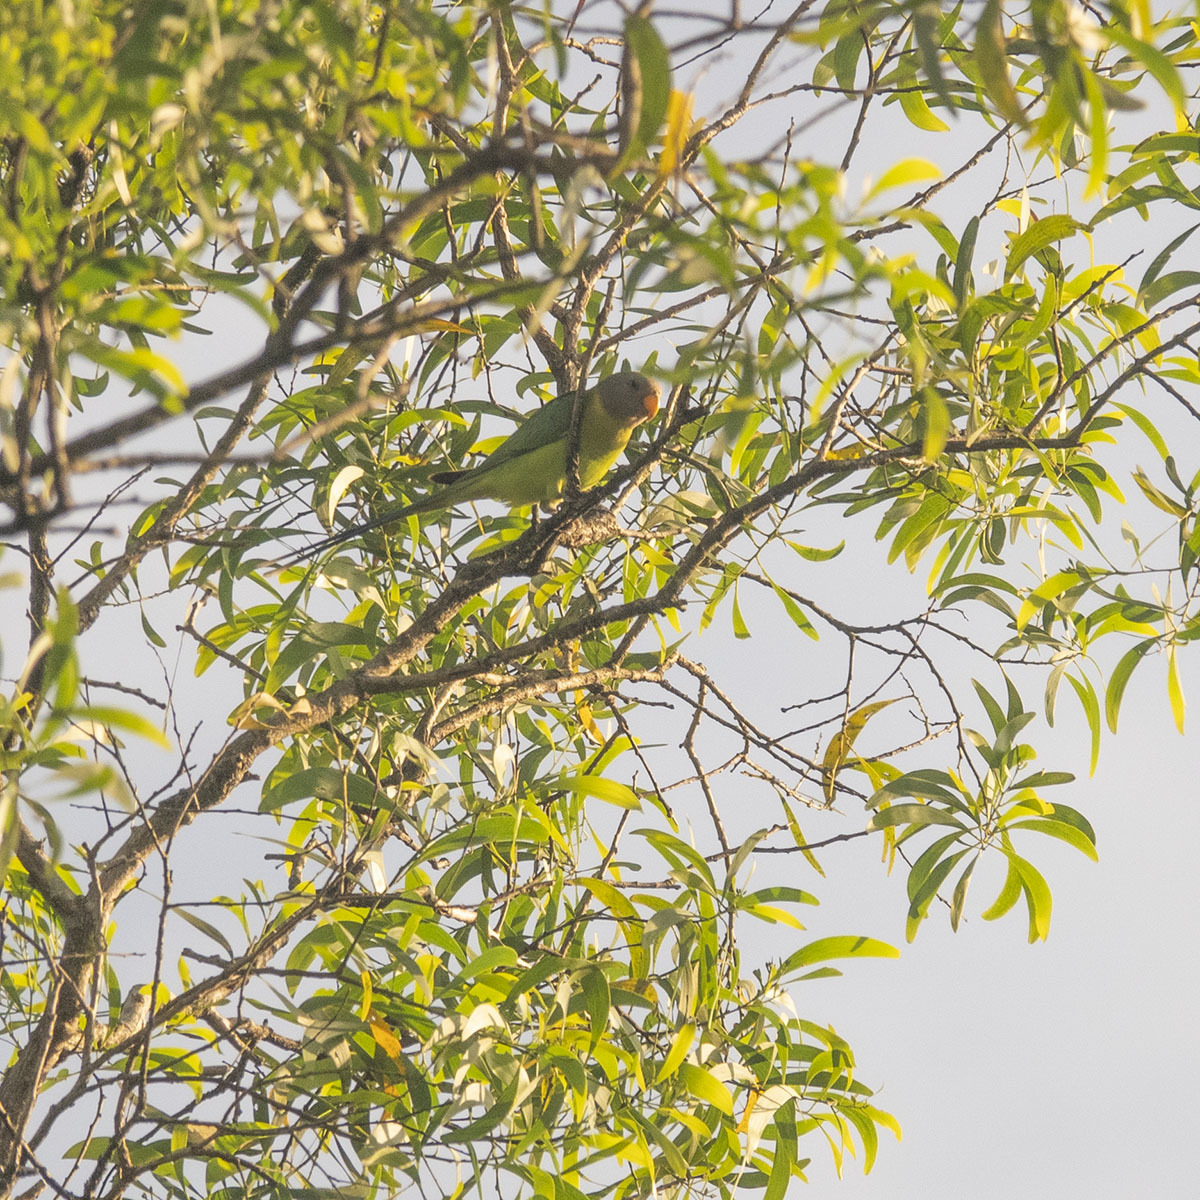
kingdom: Animalia
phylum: Chordata
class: Aves
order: Psittaciformes
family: Psittacidae
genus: Psittacula
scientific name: Psittacula cyanocephala
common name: Plum-headed parakeet
